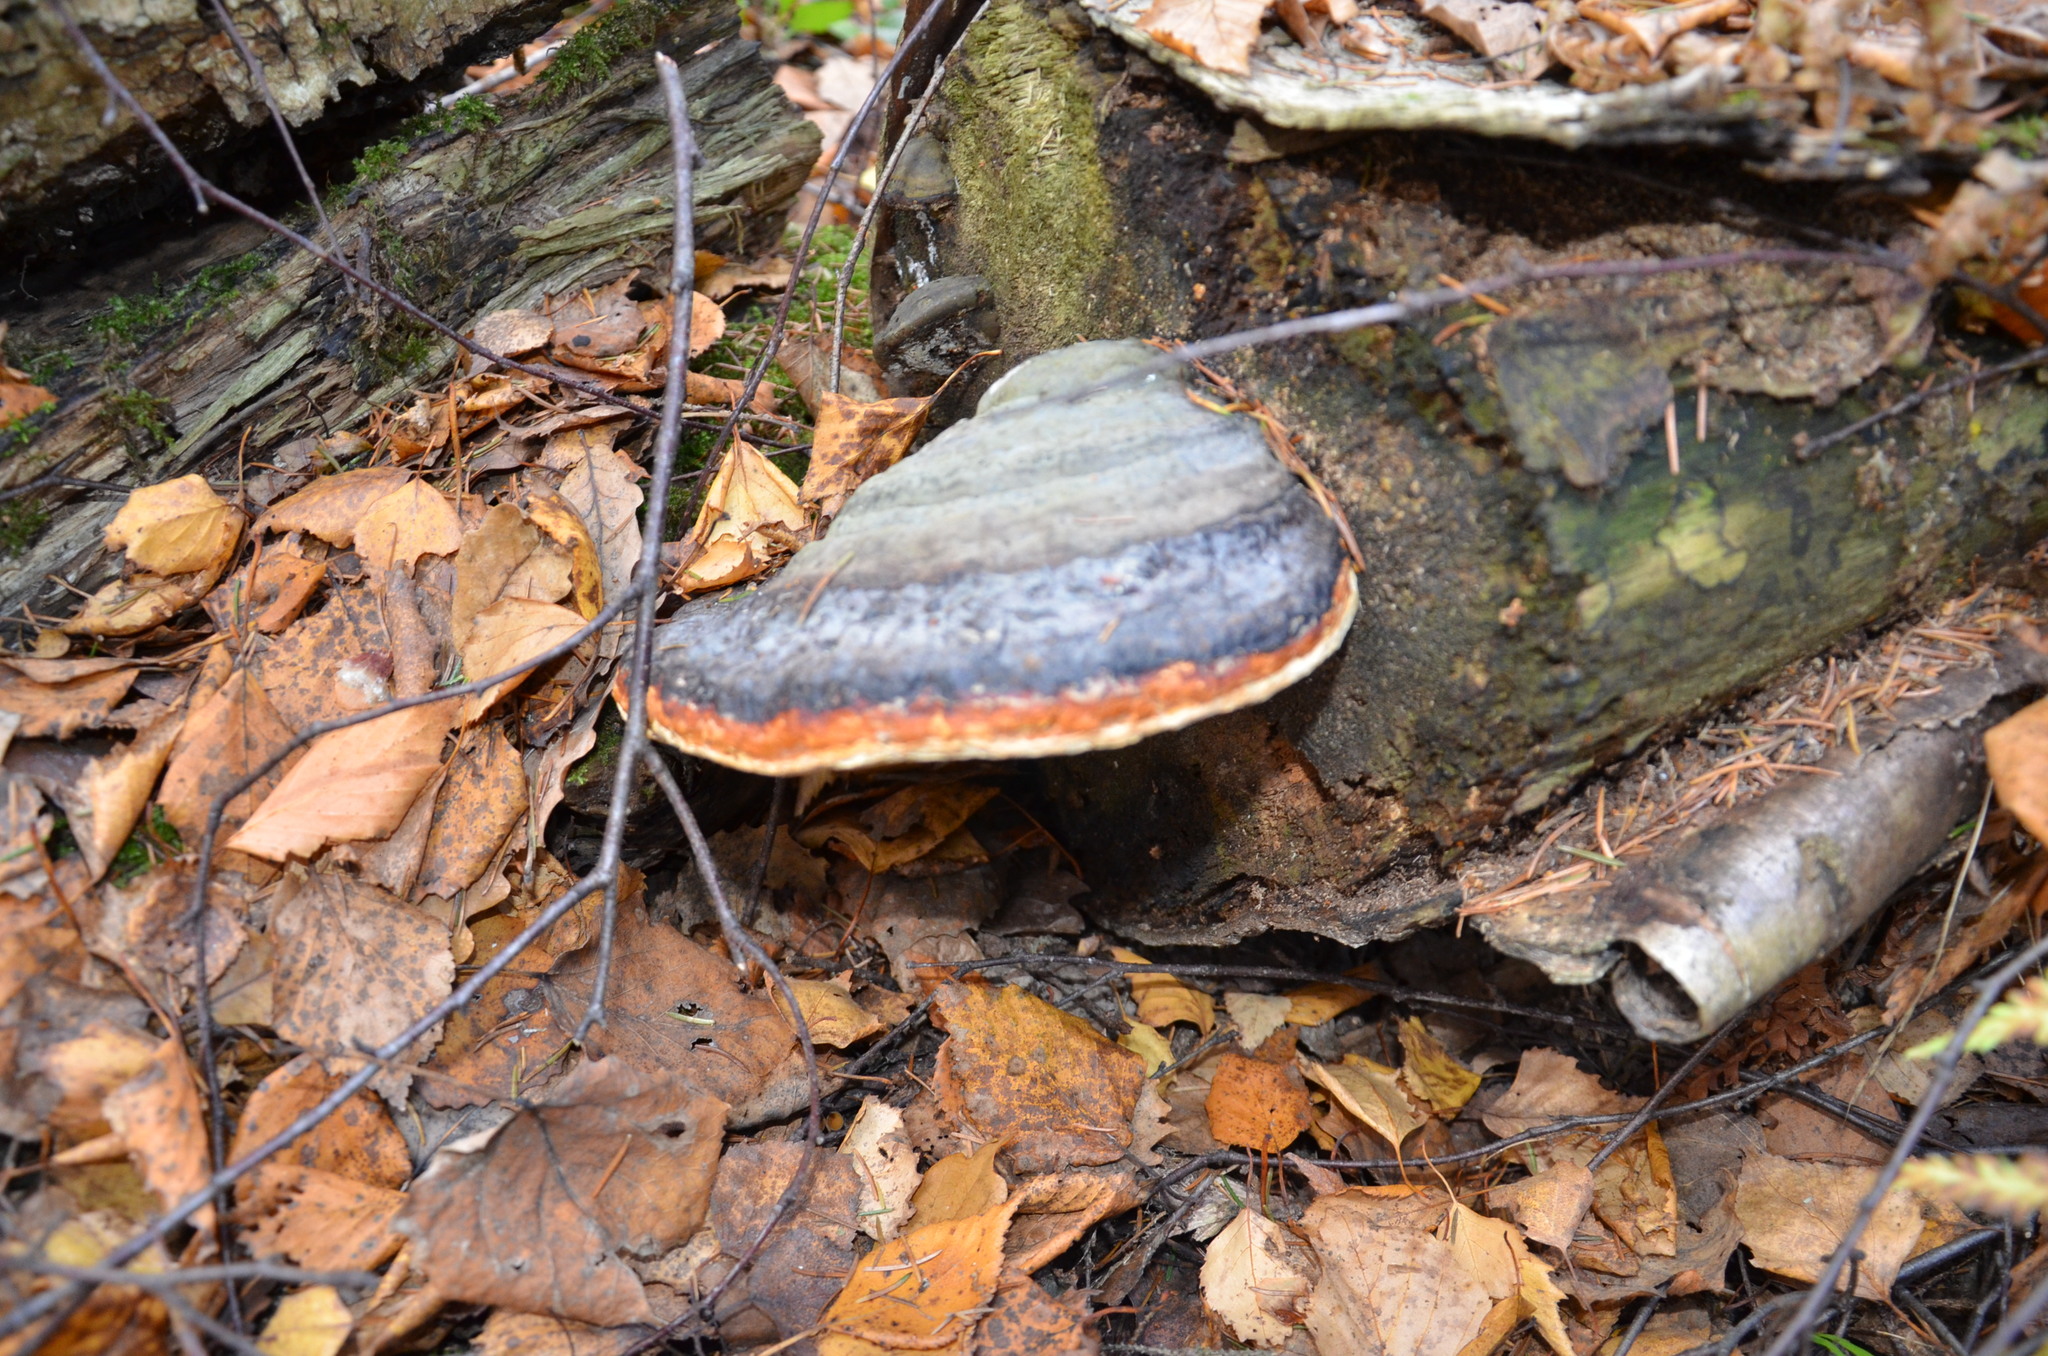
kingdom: Fungi
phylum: Basidiomycota
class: Agaricomycetes
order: Polyporales
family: Fomitopsidaceae
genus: Fomitopsis
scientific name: Fomitopsis pinicola
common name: Red-belted bracket
